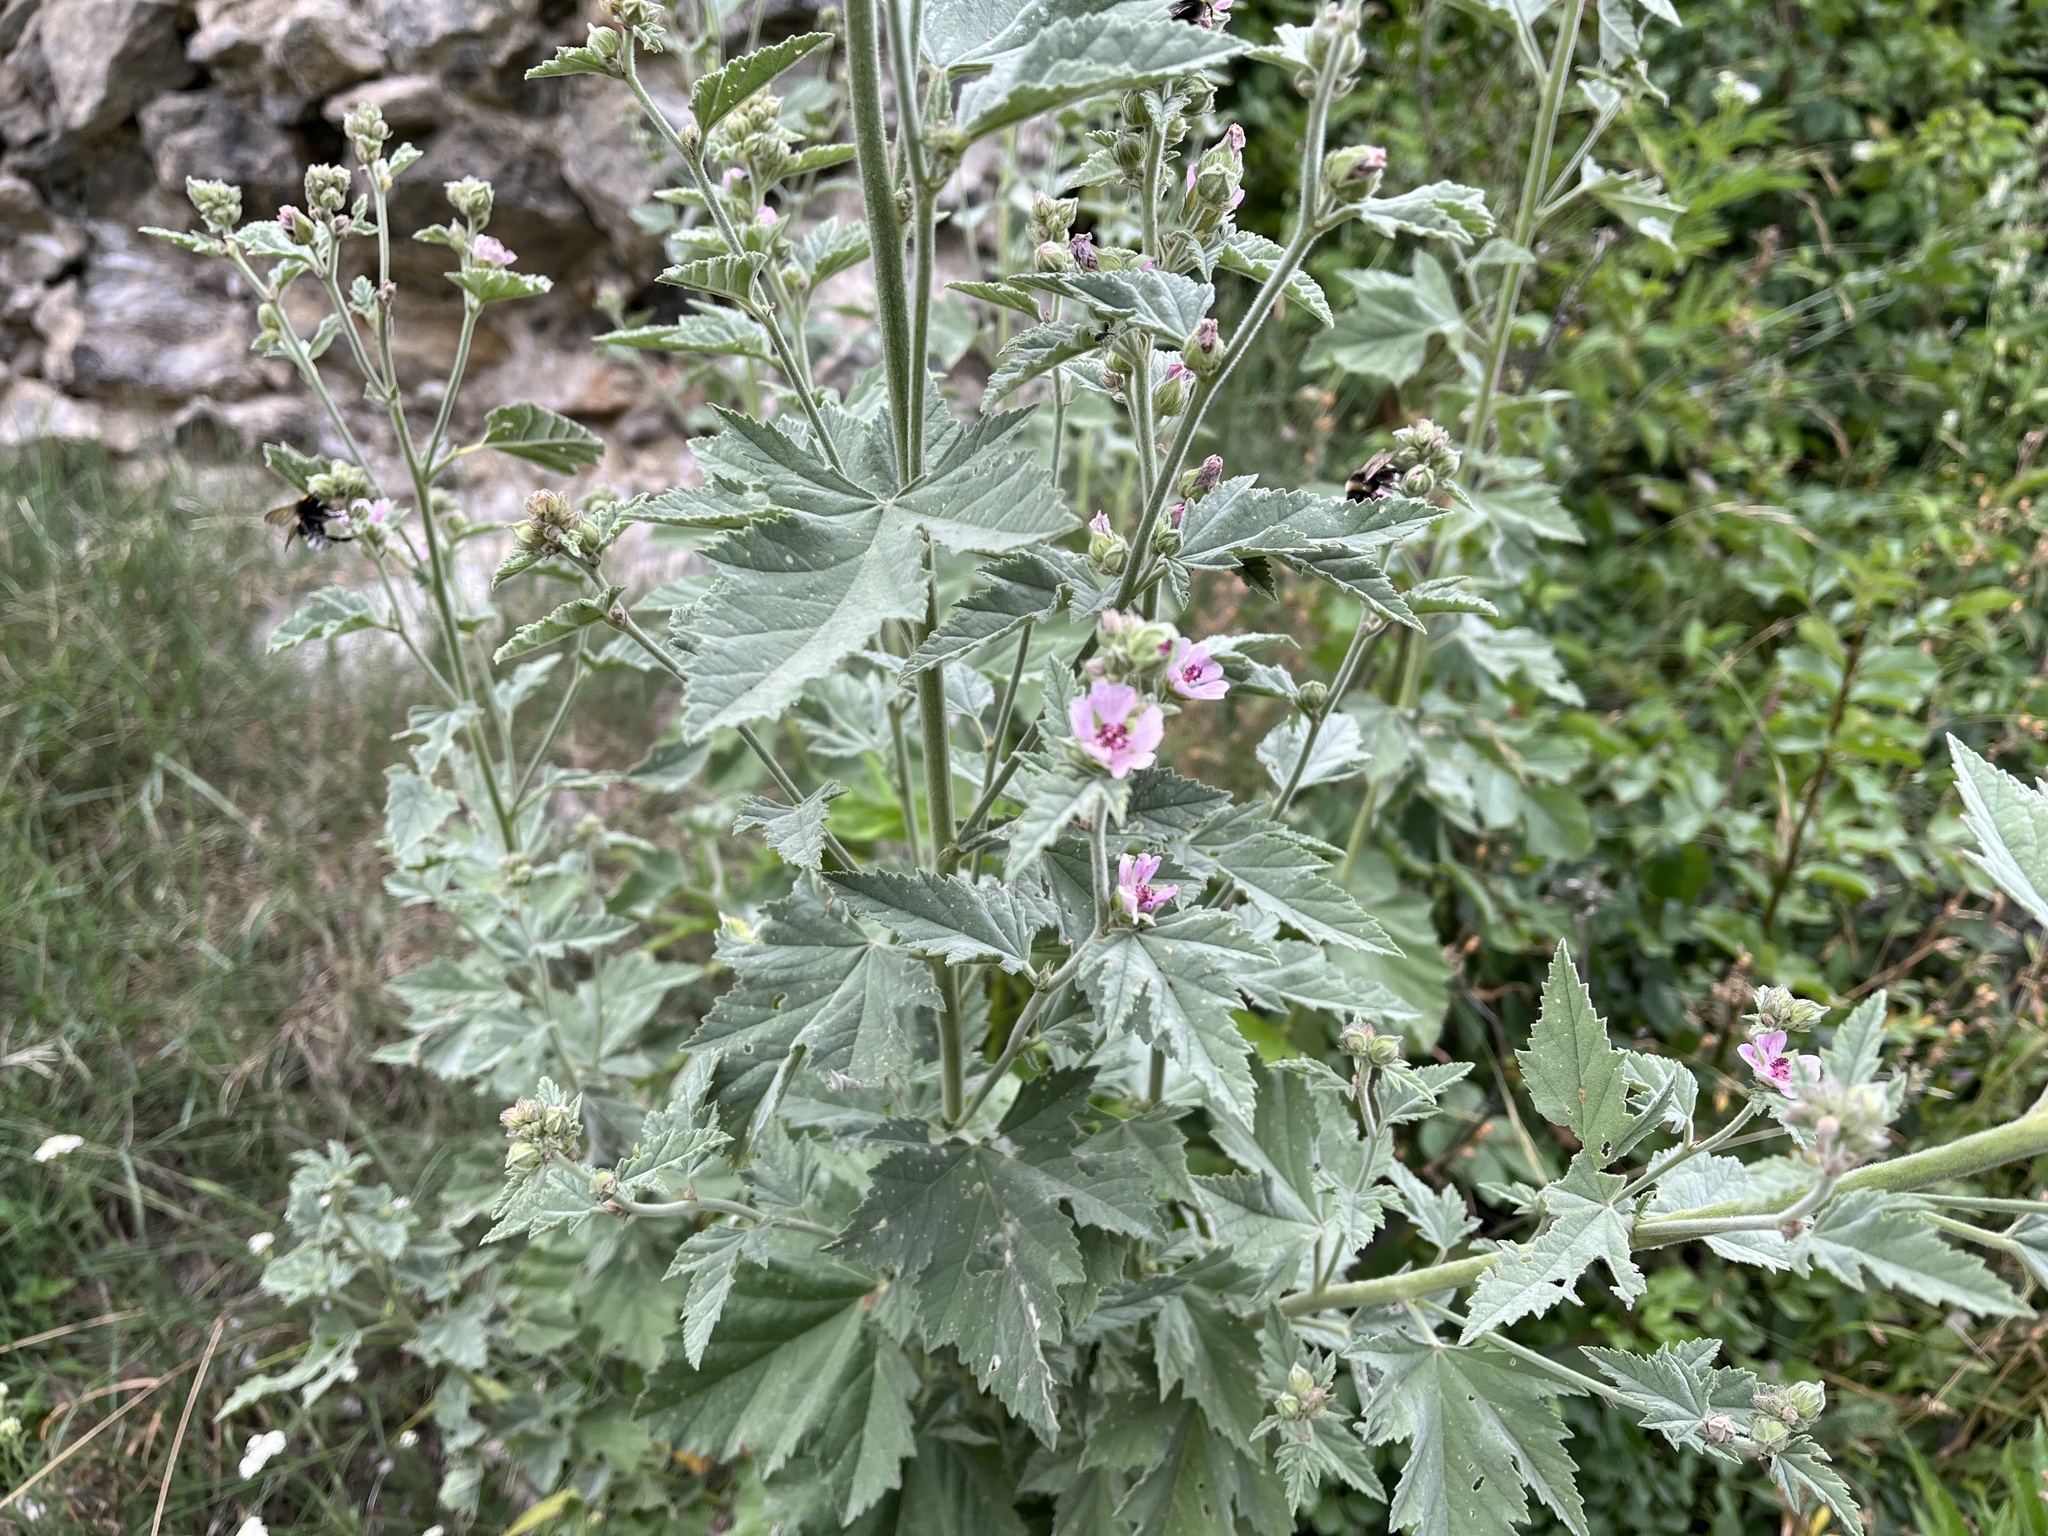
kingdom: Plantae
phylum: Tracheophyta
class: Magnoliopsida
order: Malvales
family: Malvaceae
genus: Althaea
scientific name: Althaea officinalis
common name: Marsh-mallow
